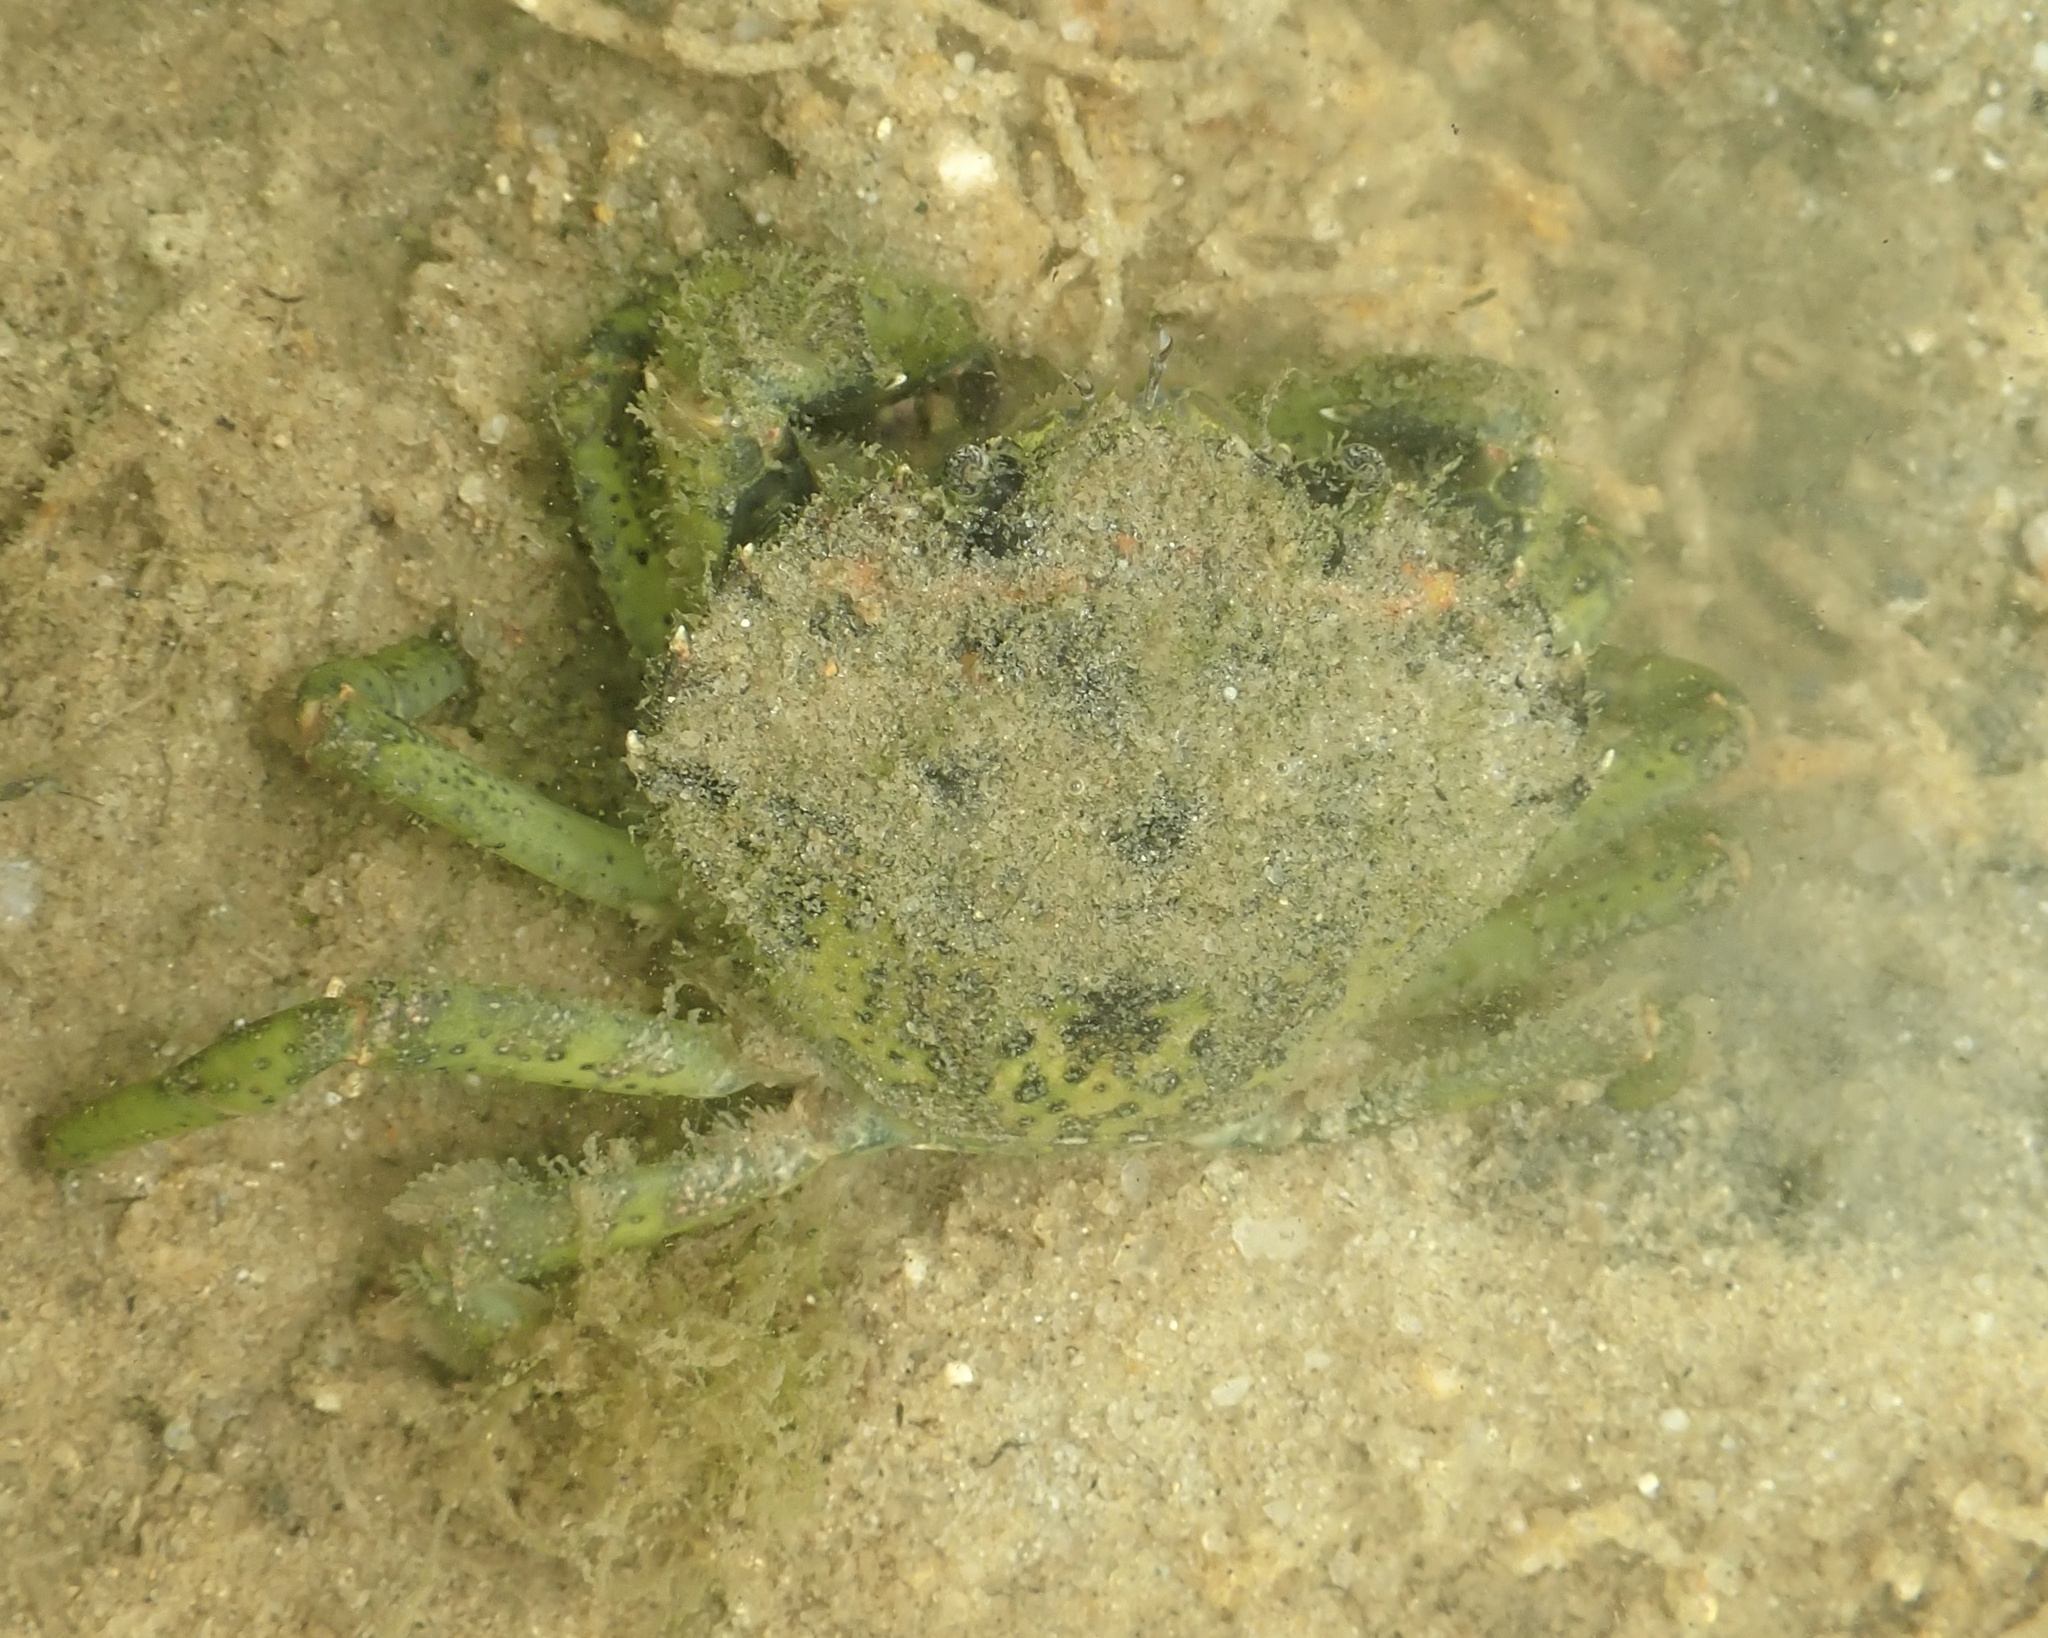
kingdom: Animalia
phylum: Arthropoda
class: Malacostraca
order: Decapoda
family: Carcinidae
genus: Carcinus
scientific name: Carcinus maenas
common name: European green crab
